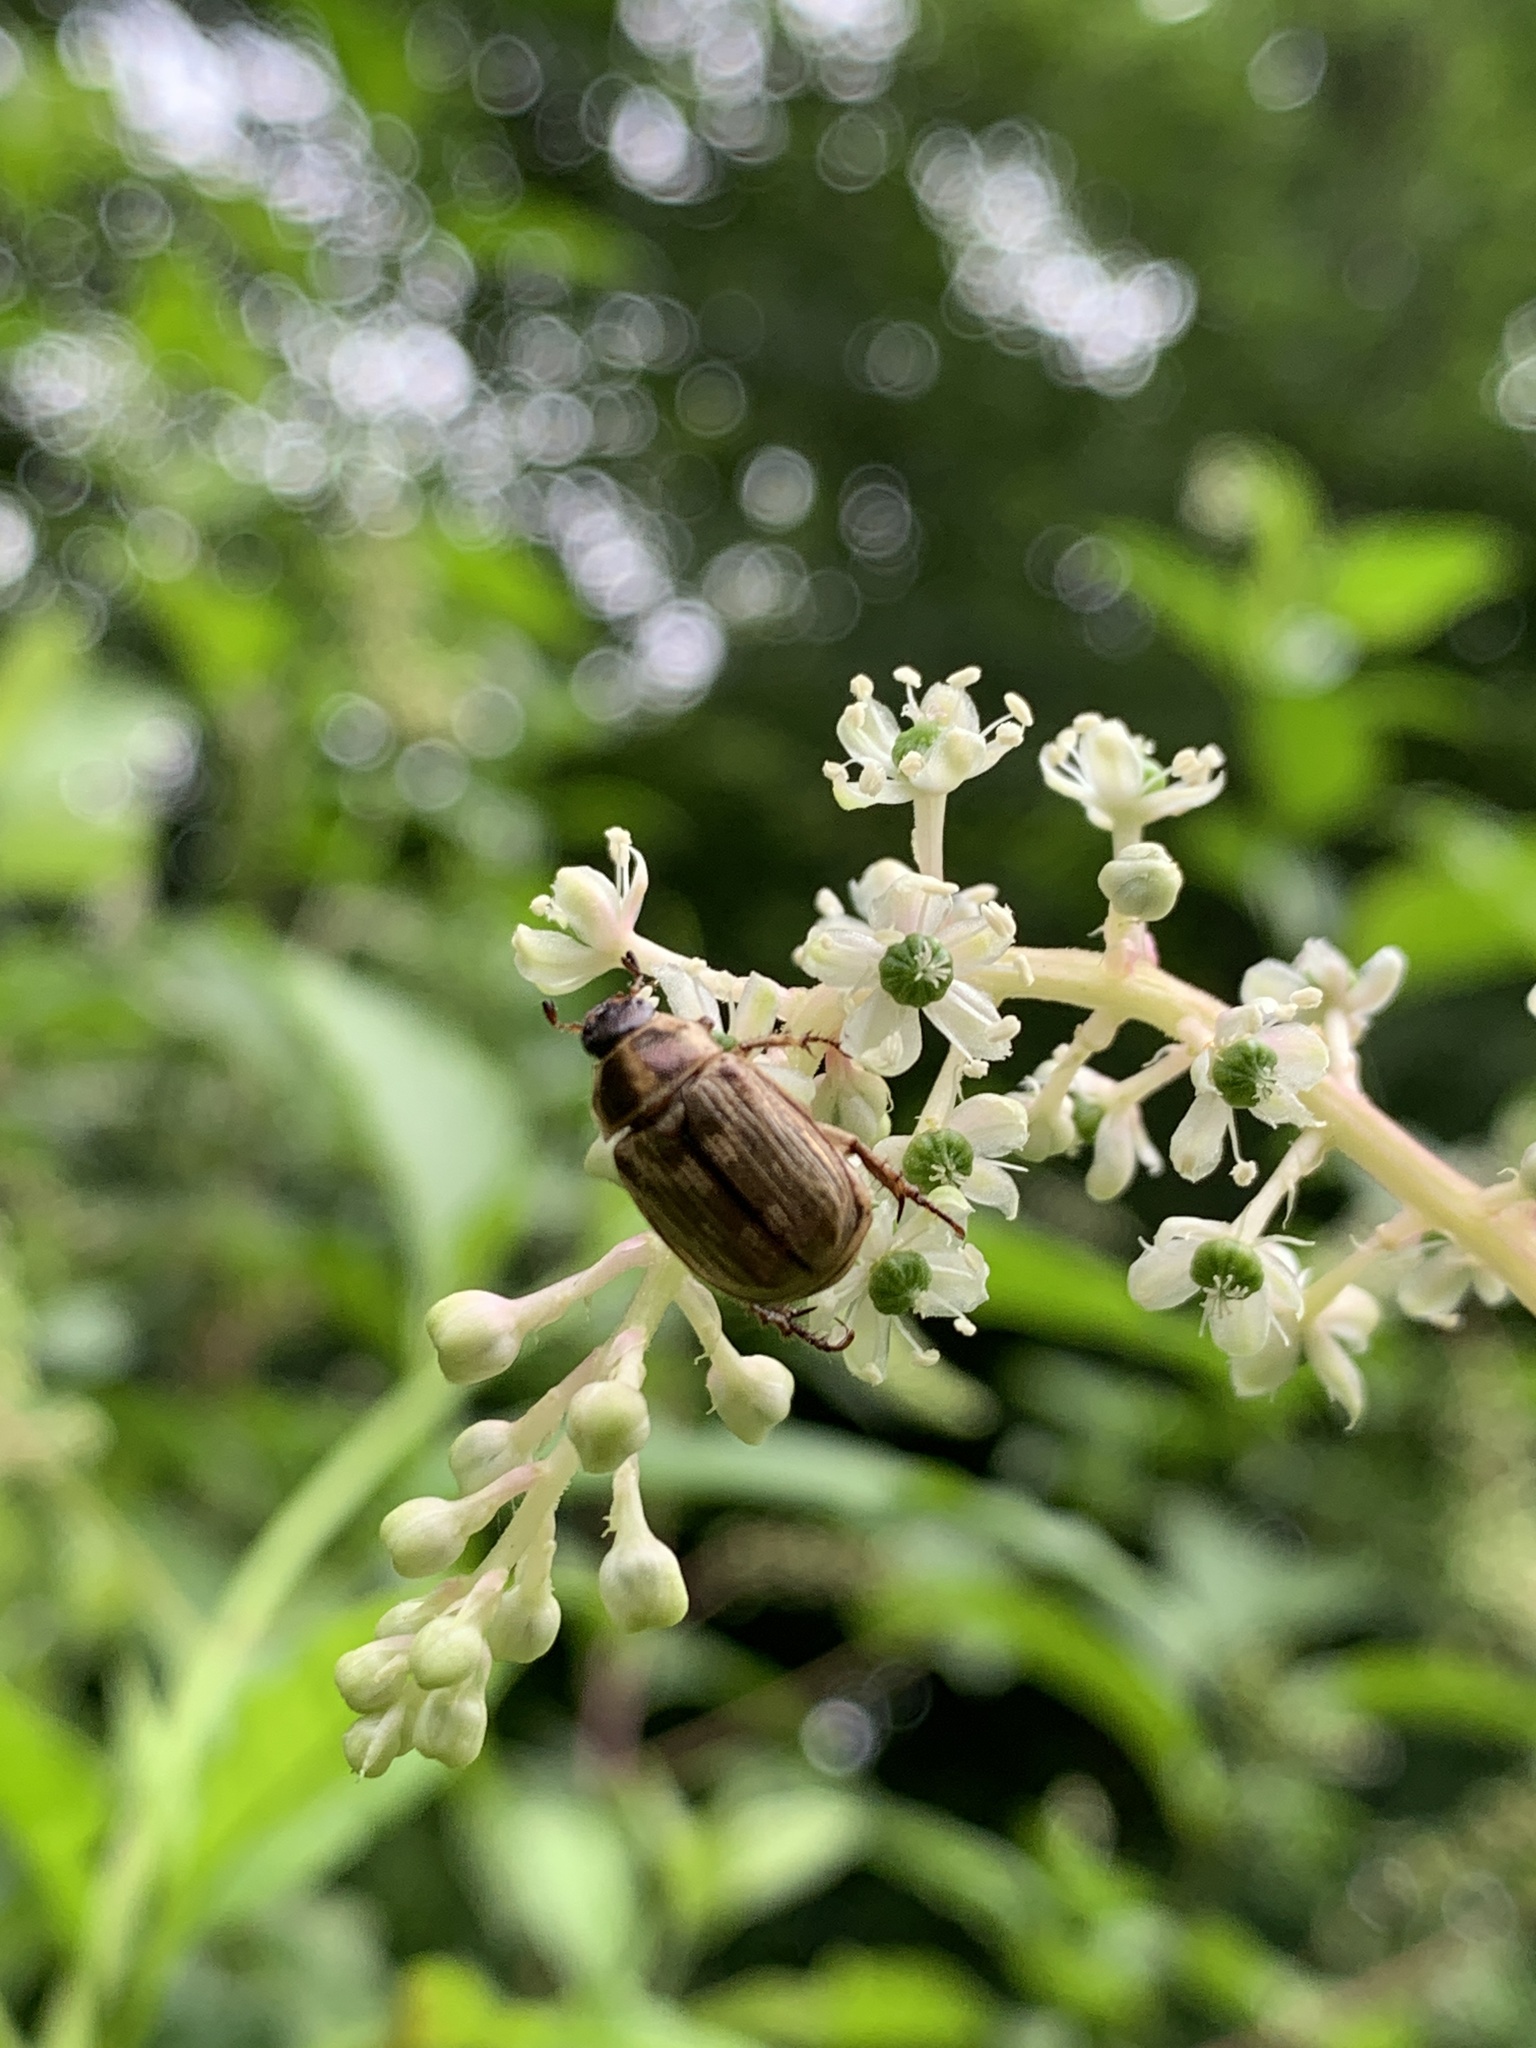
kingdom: Animalia
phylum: Arthropoda
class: Insecta
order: Coleoptera
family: Scarabaeidae
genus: Exomala
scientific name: Exomala orientalis
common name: Oriental beetle
